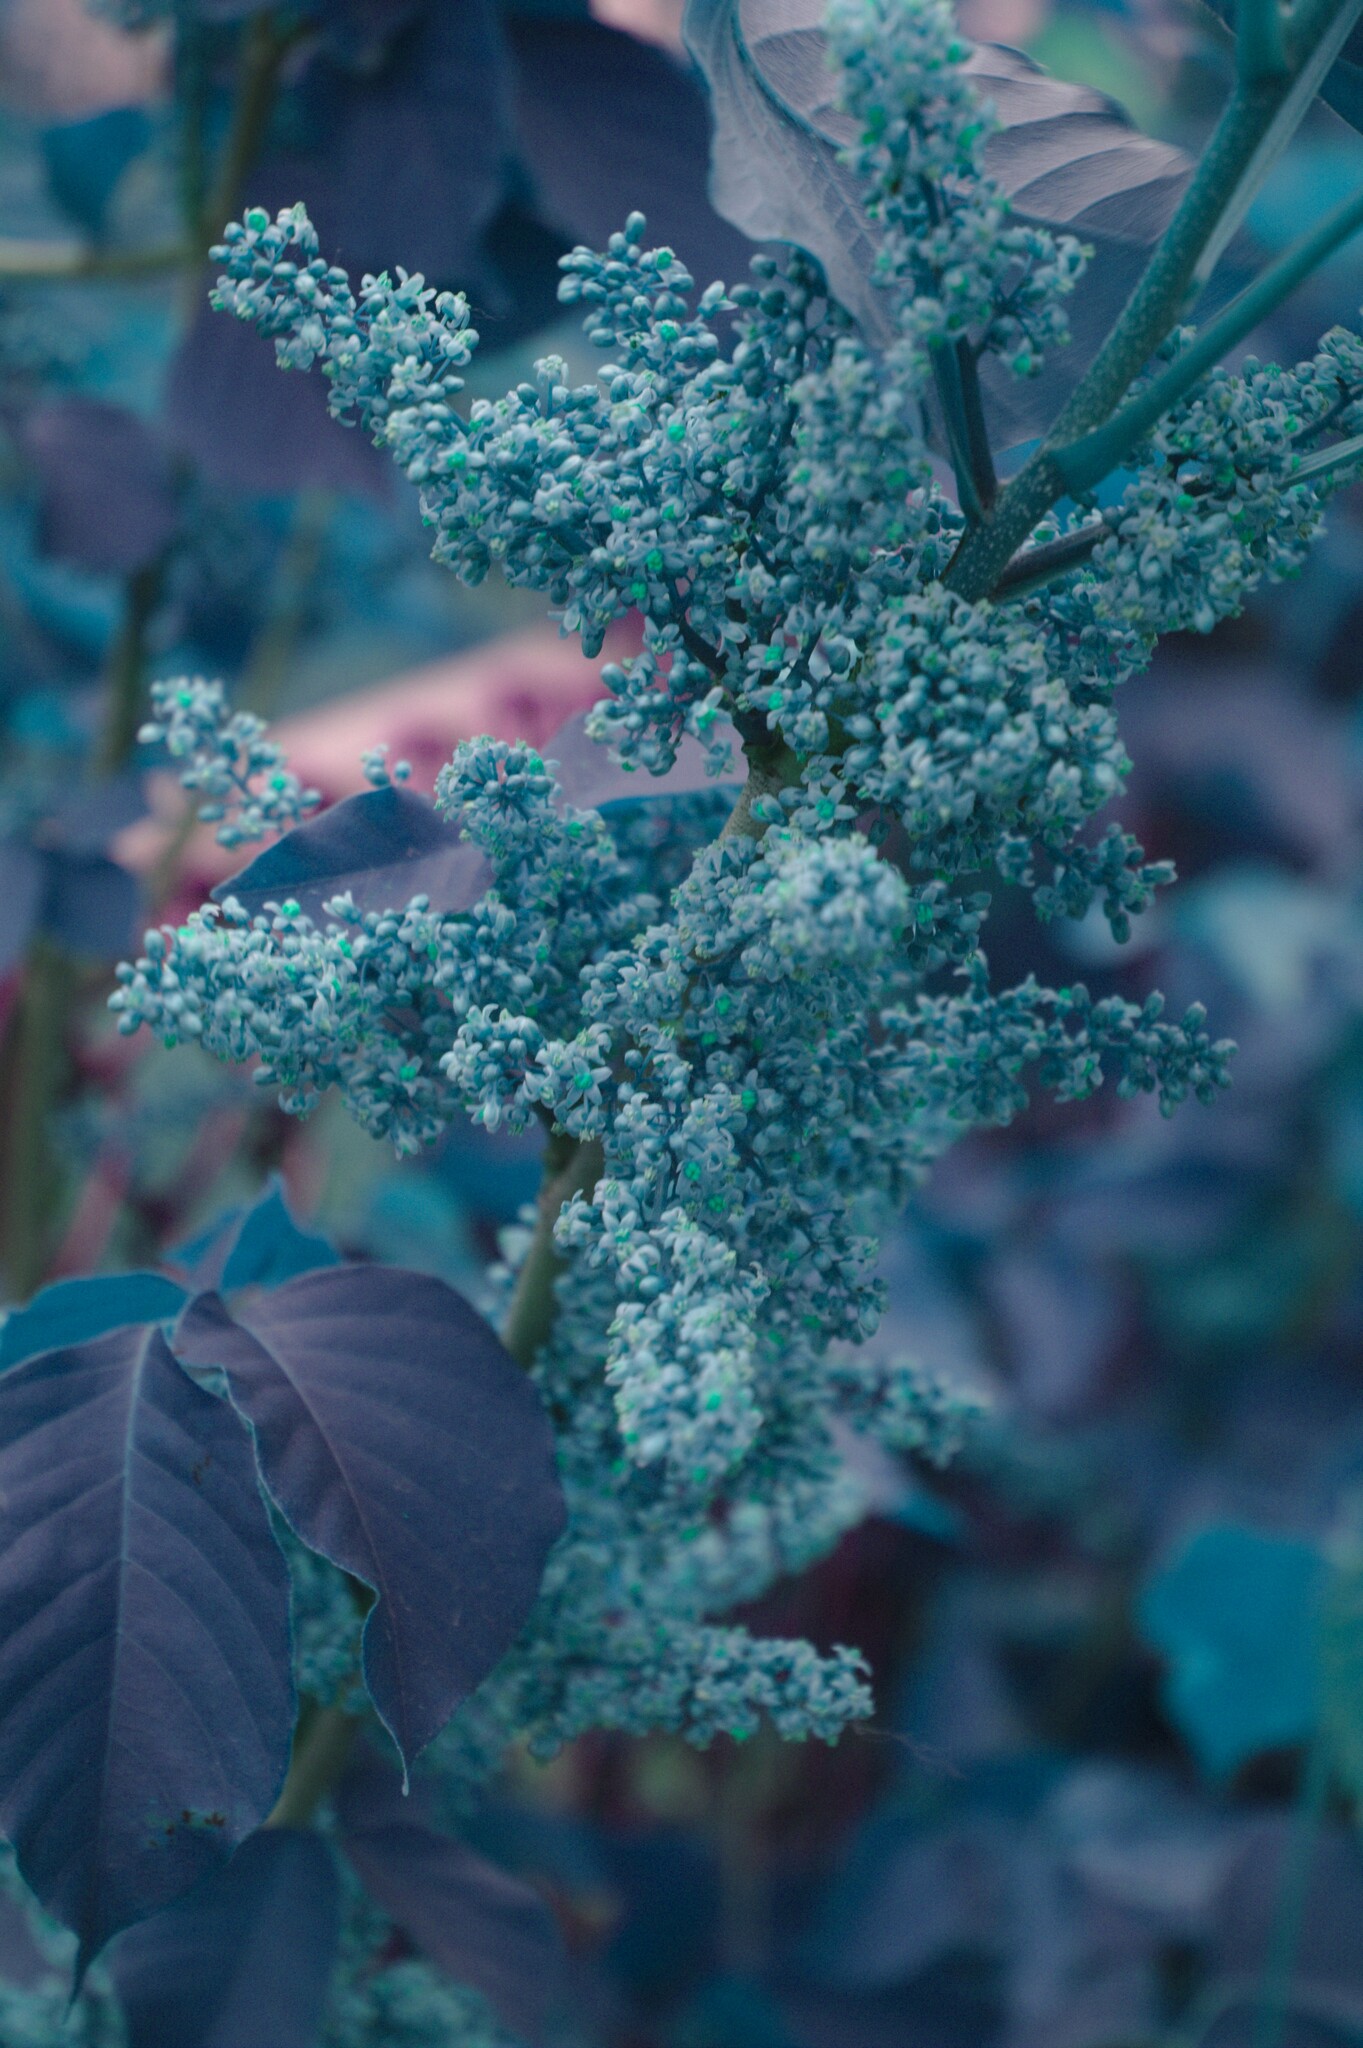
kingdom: Plantae
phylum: Tracheophyta
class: Magnoliopsida
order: Sapindales
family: Anacardiaceae
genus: Toxicodendron
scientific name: Toxicodendron rydbergii
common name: Rydberg's poison-ivy
